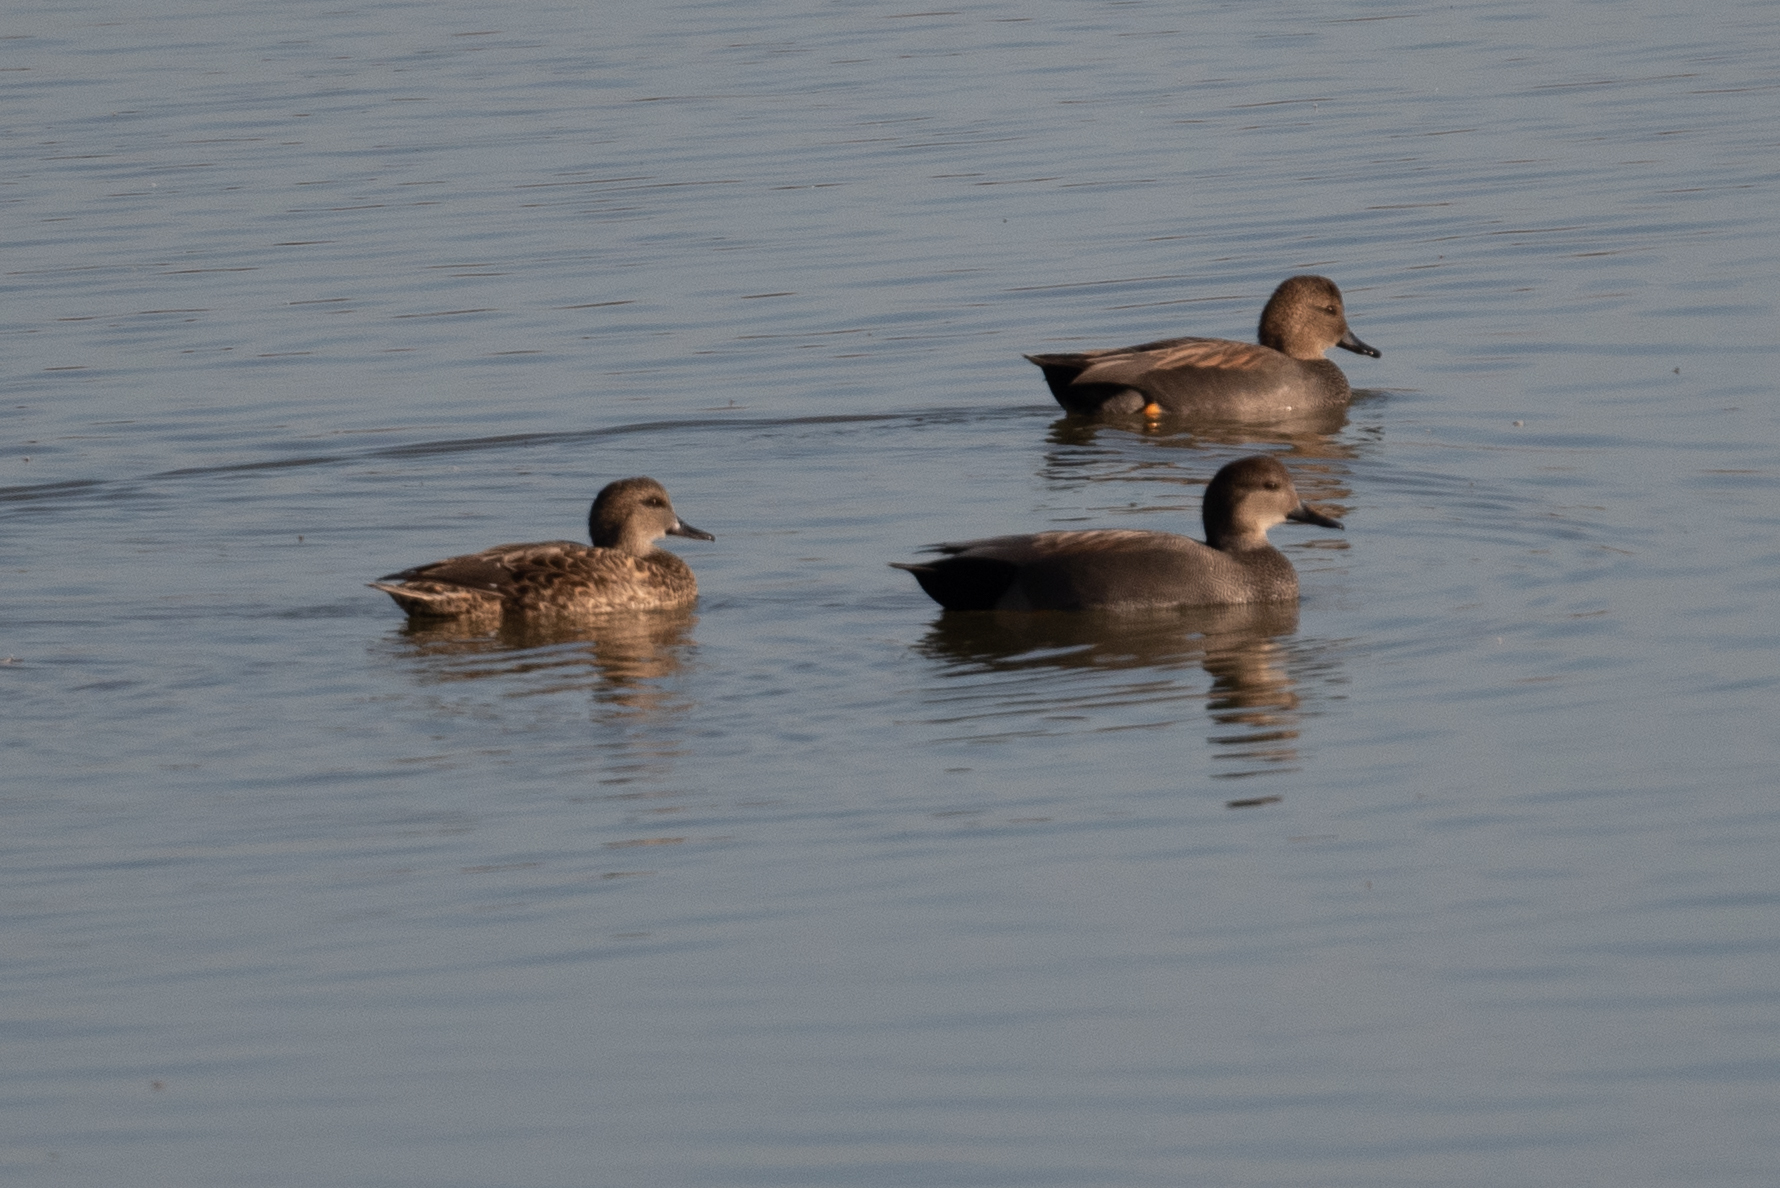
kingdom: Animalia
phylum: Chordata
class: Aves
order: Anseriformes
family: Anatidae
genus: Mareca
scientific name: Mareca strepera
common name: Gadwall
